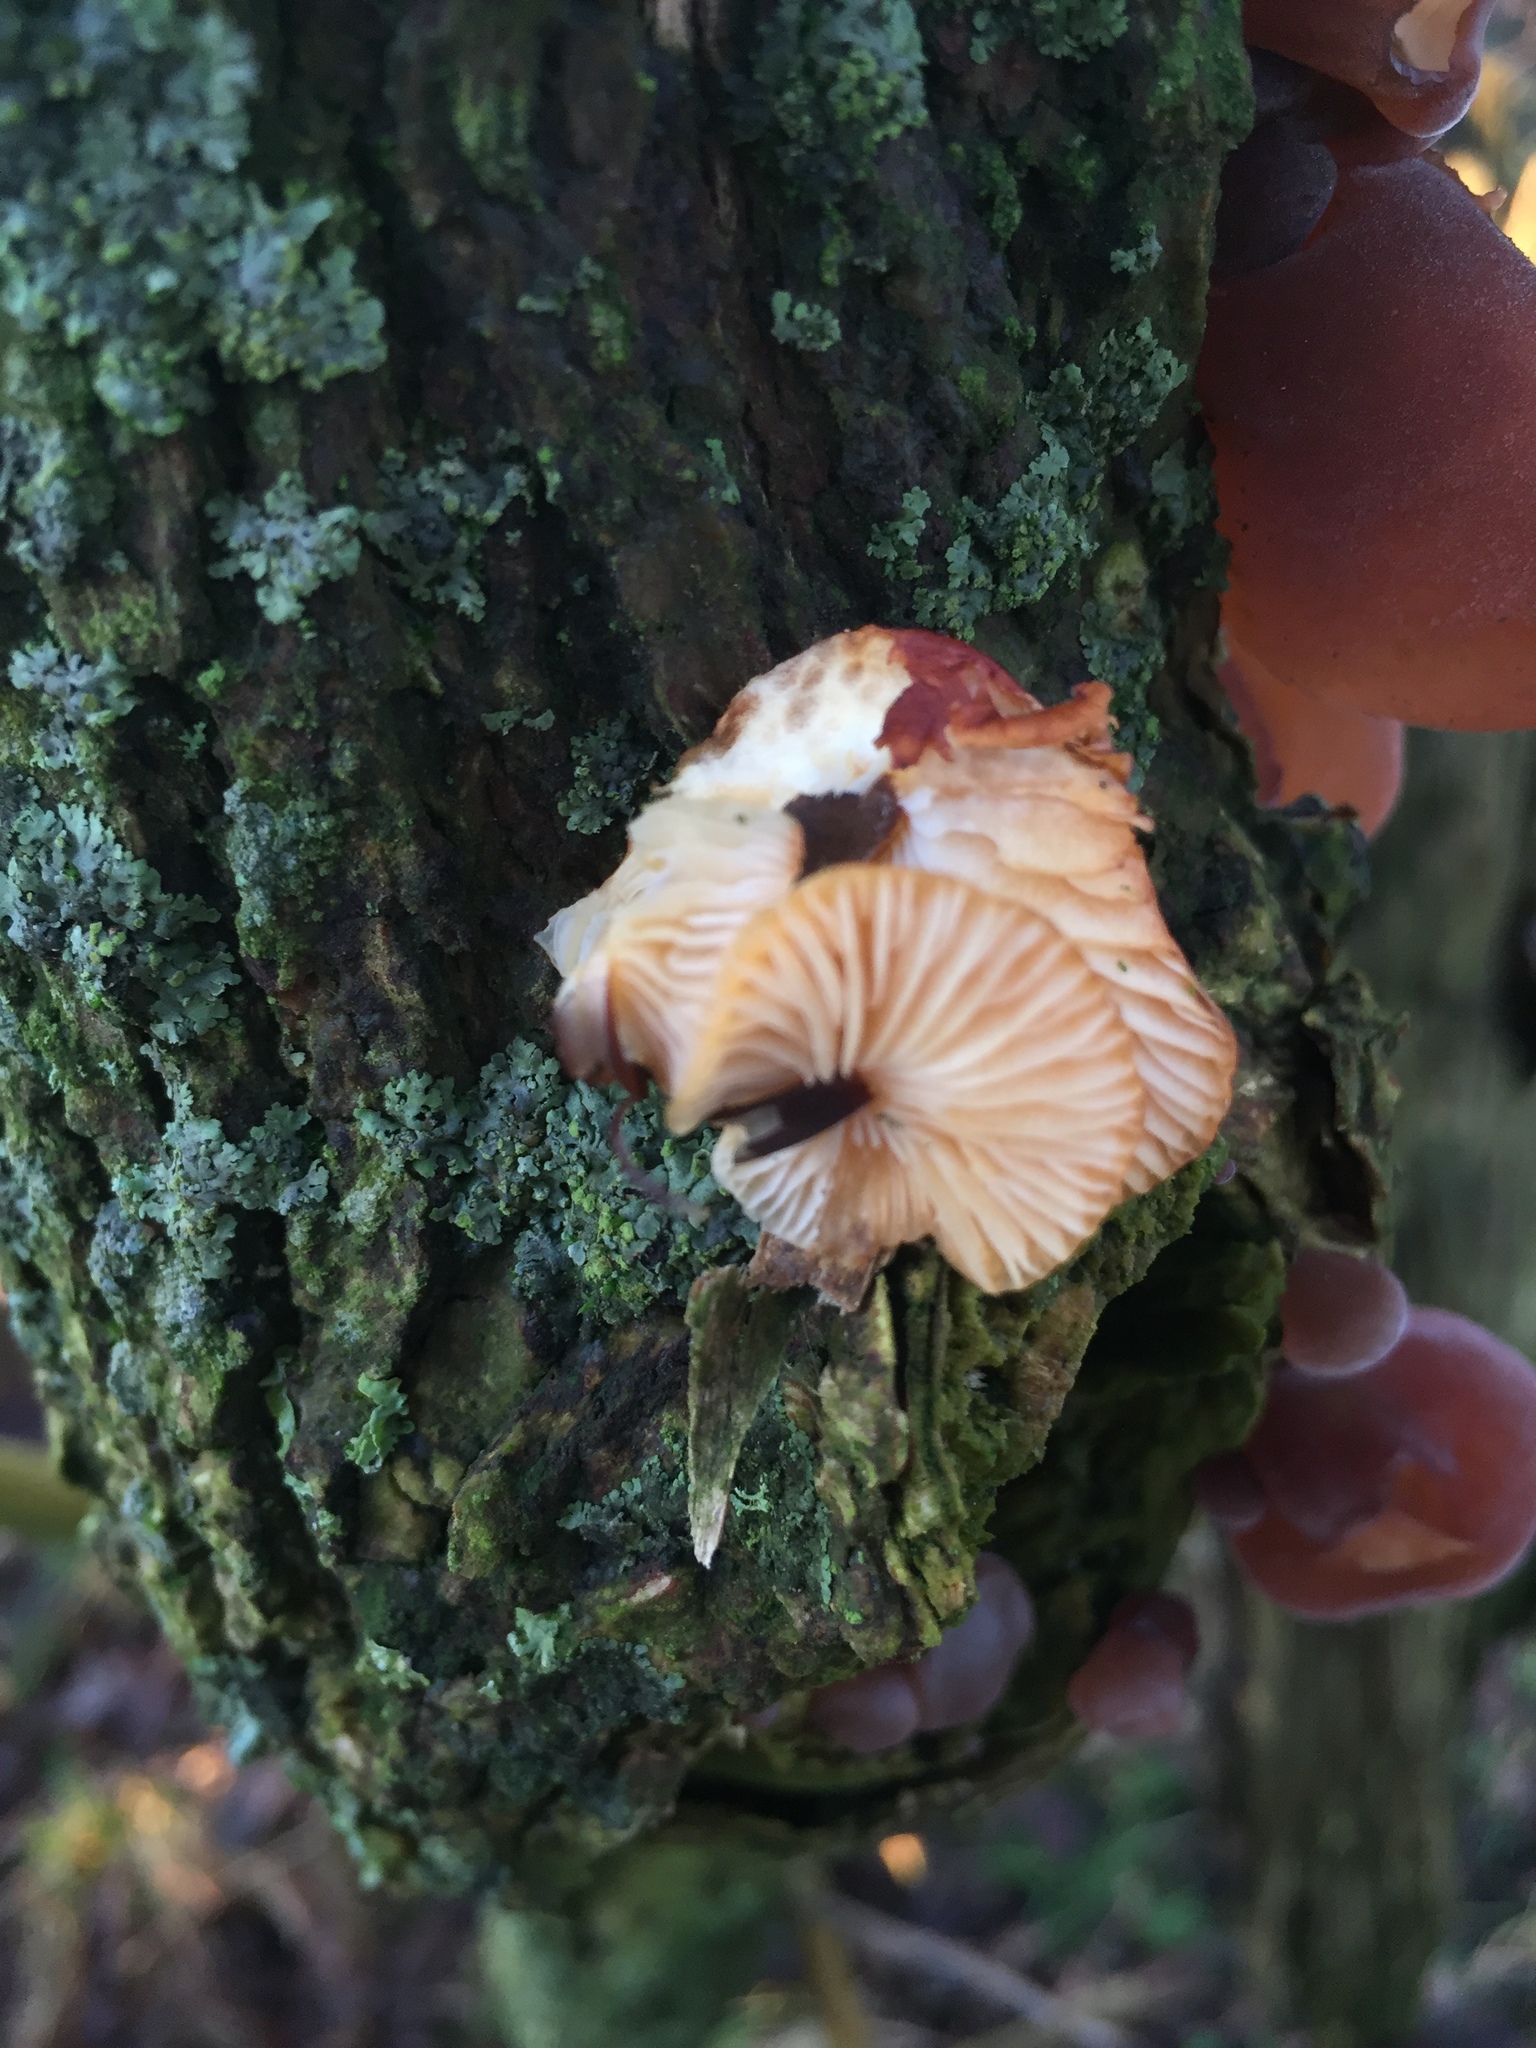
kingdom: Fungi
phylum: Basidiomycota
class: Agaricomycetes
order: Agaricales
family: Physalacriaceae
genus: Flammulina
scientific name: Flammulina
